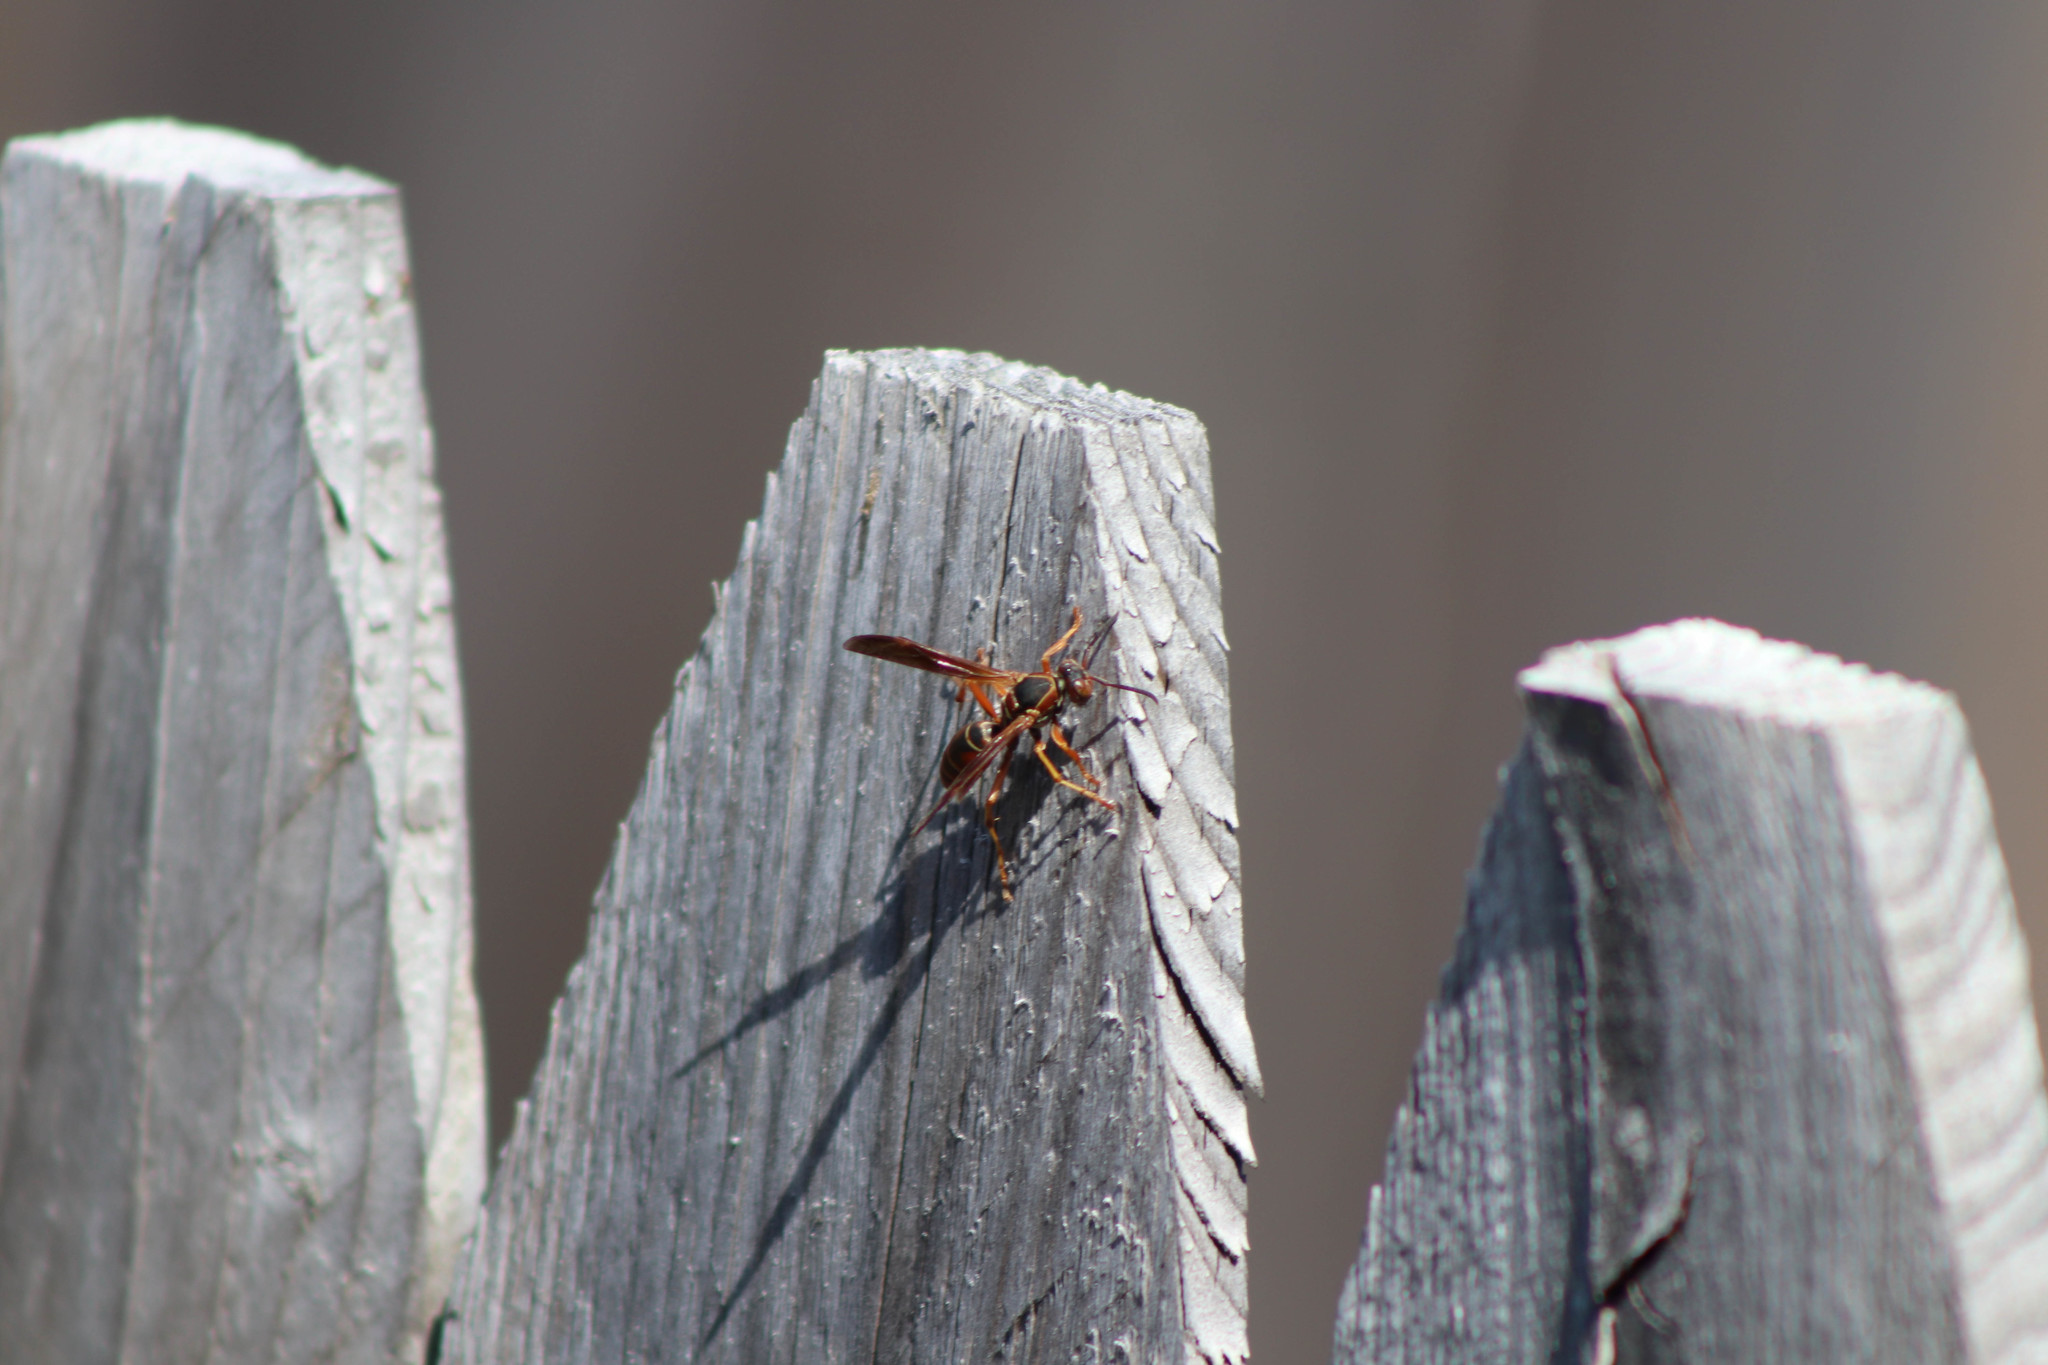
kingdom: Animalia
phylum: Arthropoda
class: Insecta
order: Hymenoptera
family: Eumenidae
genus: Polistes
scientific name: Polistes fuscatus
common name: Dark paper wasp
